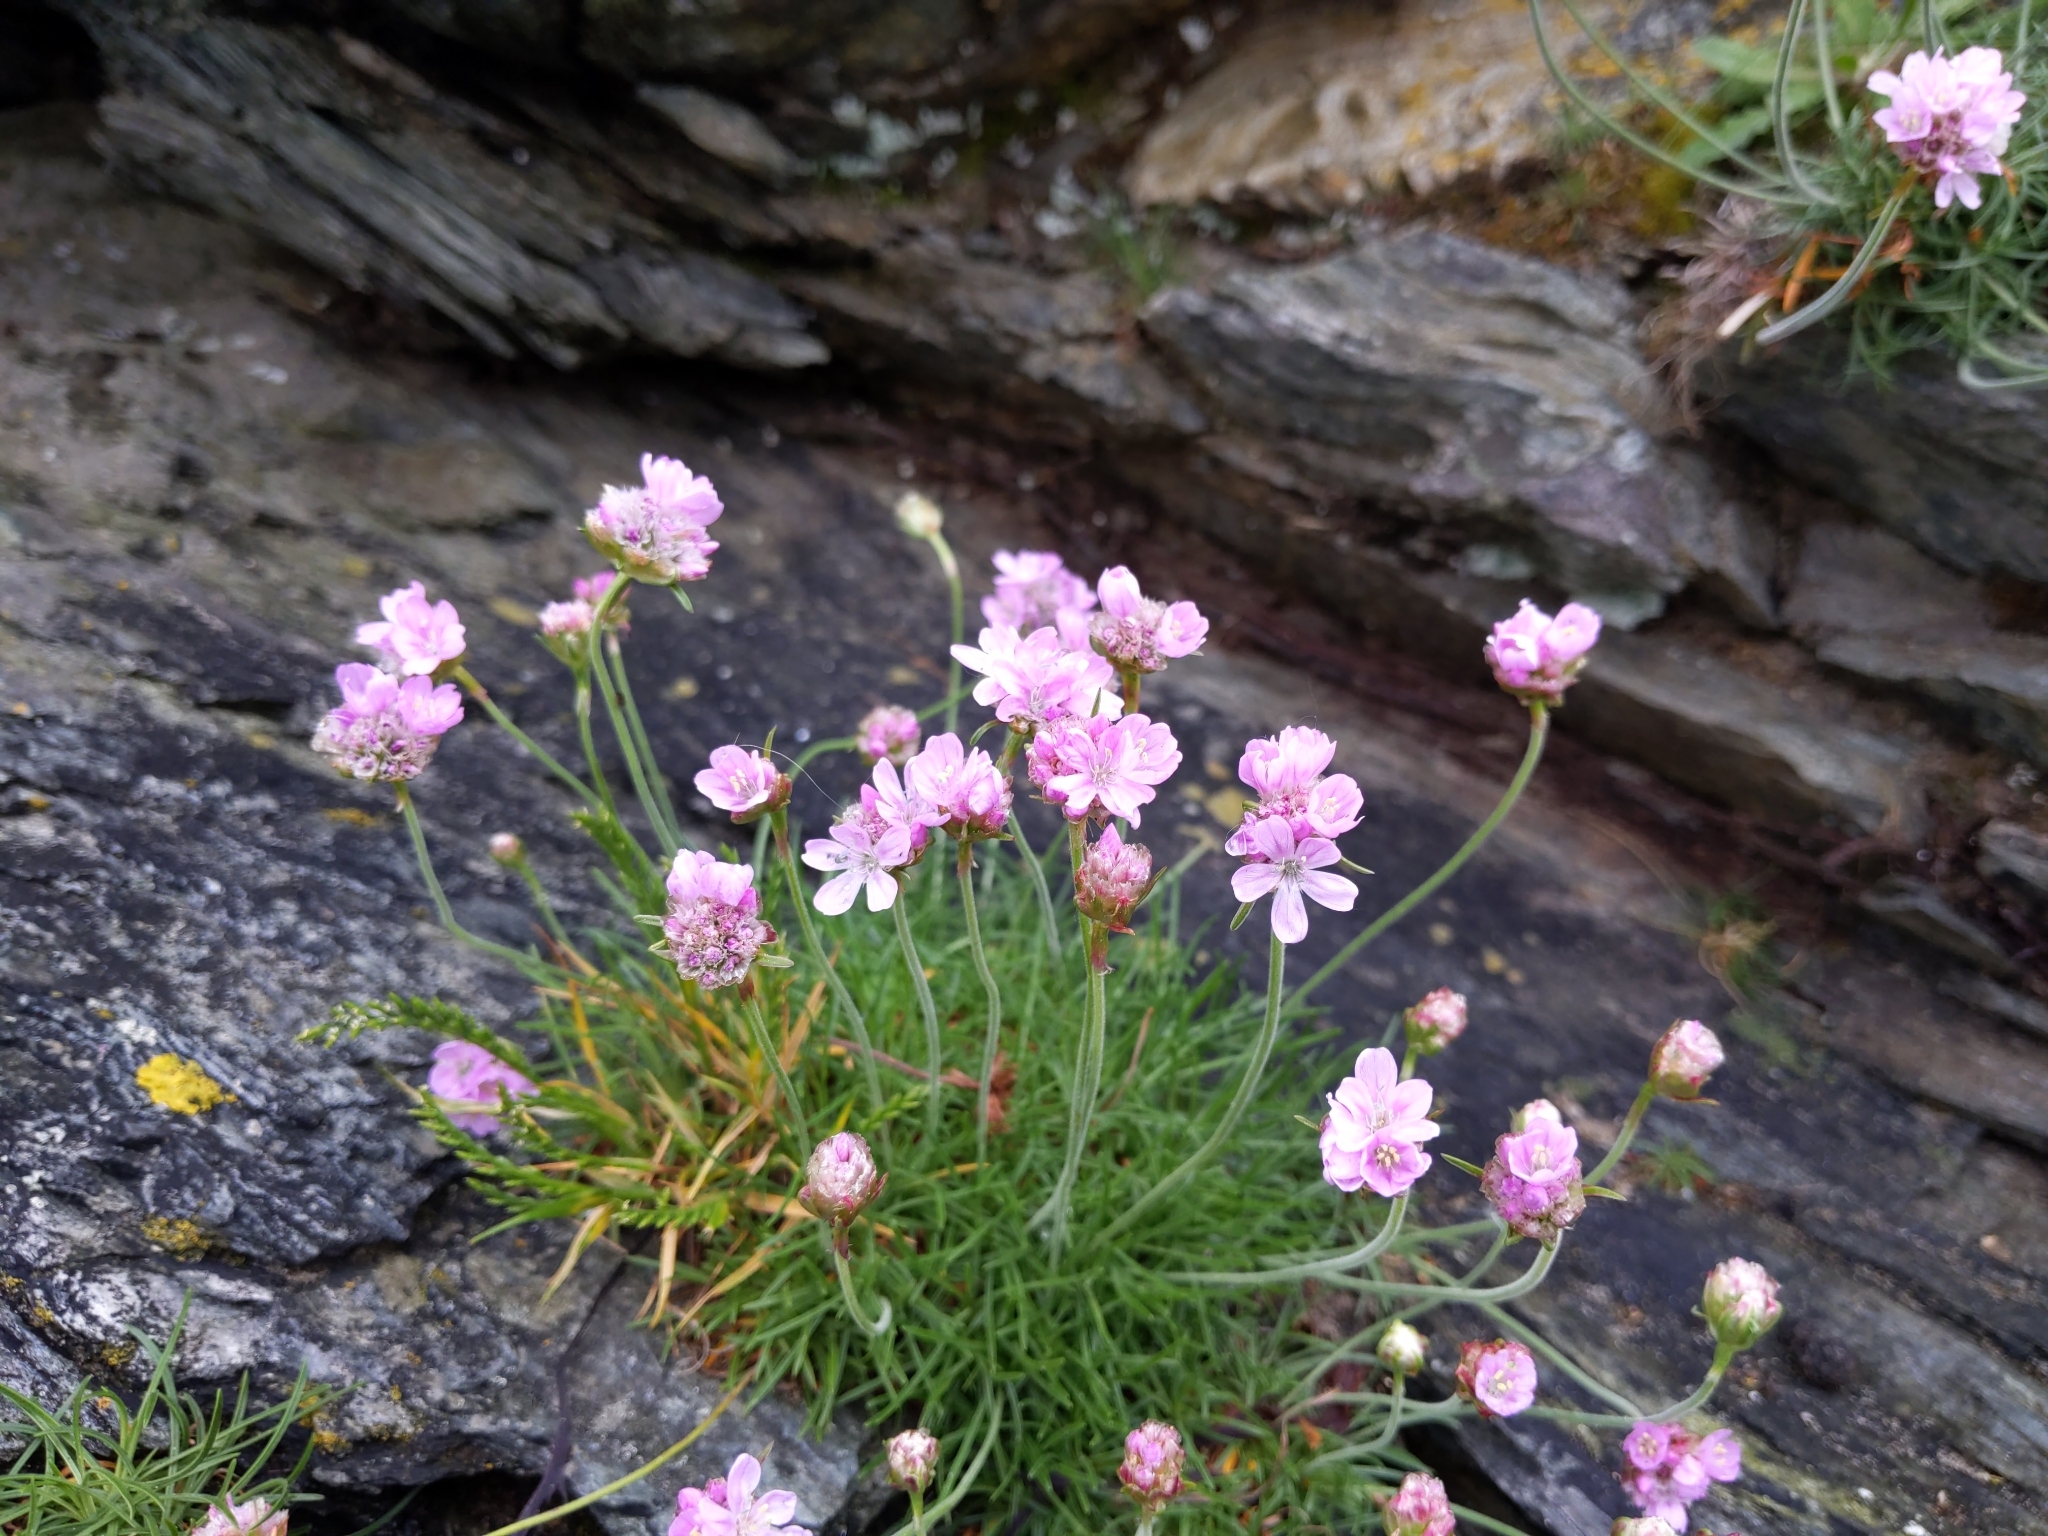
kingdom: Plantae
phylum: Tracheophyta
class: Magnoliopsida
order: Caryophyllales
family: Plumbaginaceae
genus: Armeria
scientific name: Armeria maritima
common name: Thrift
